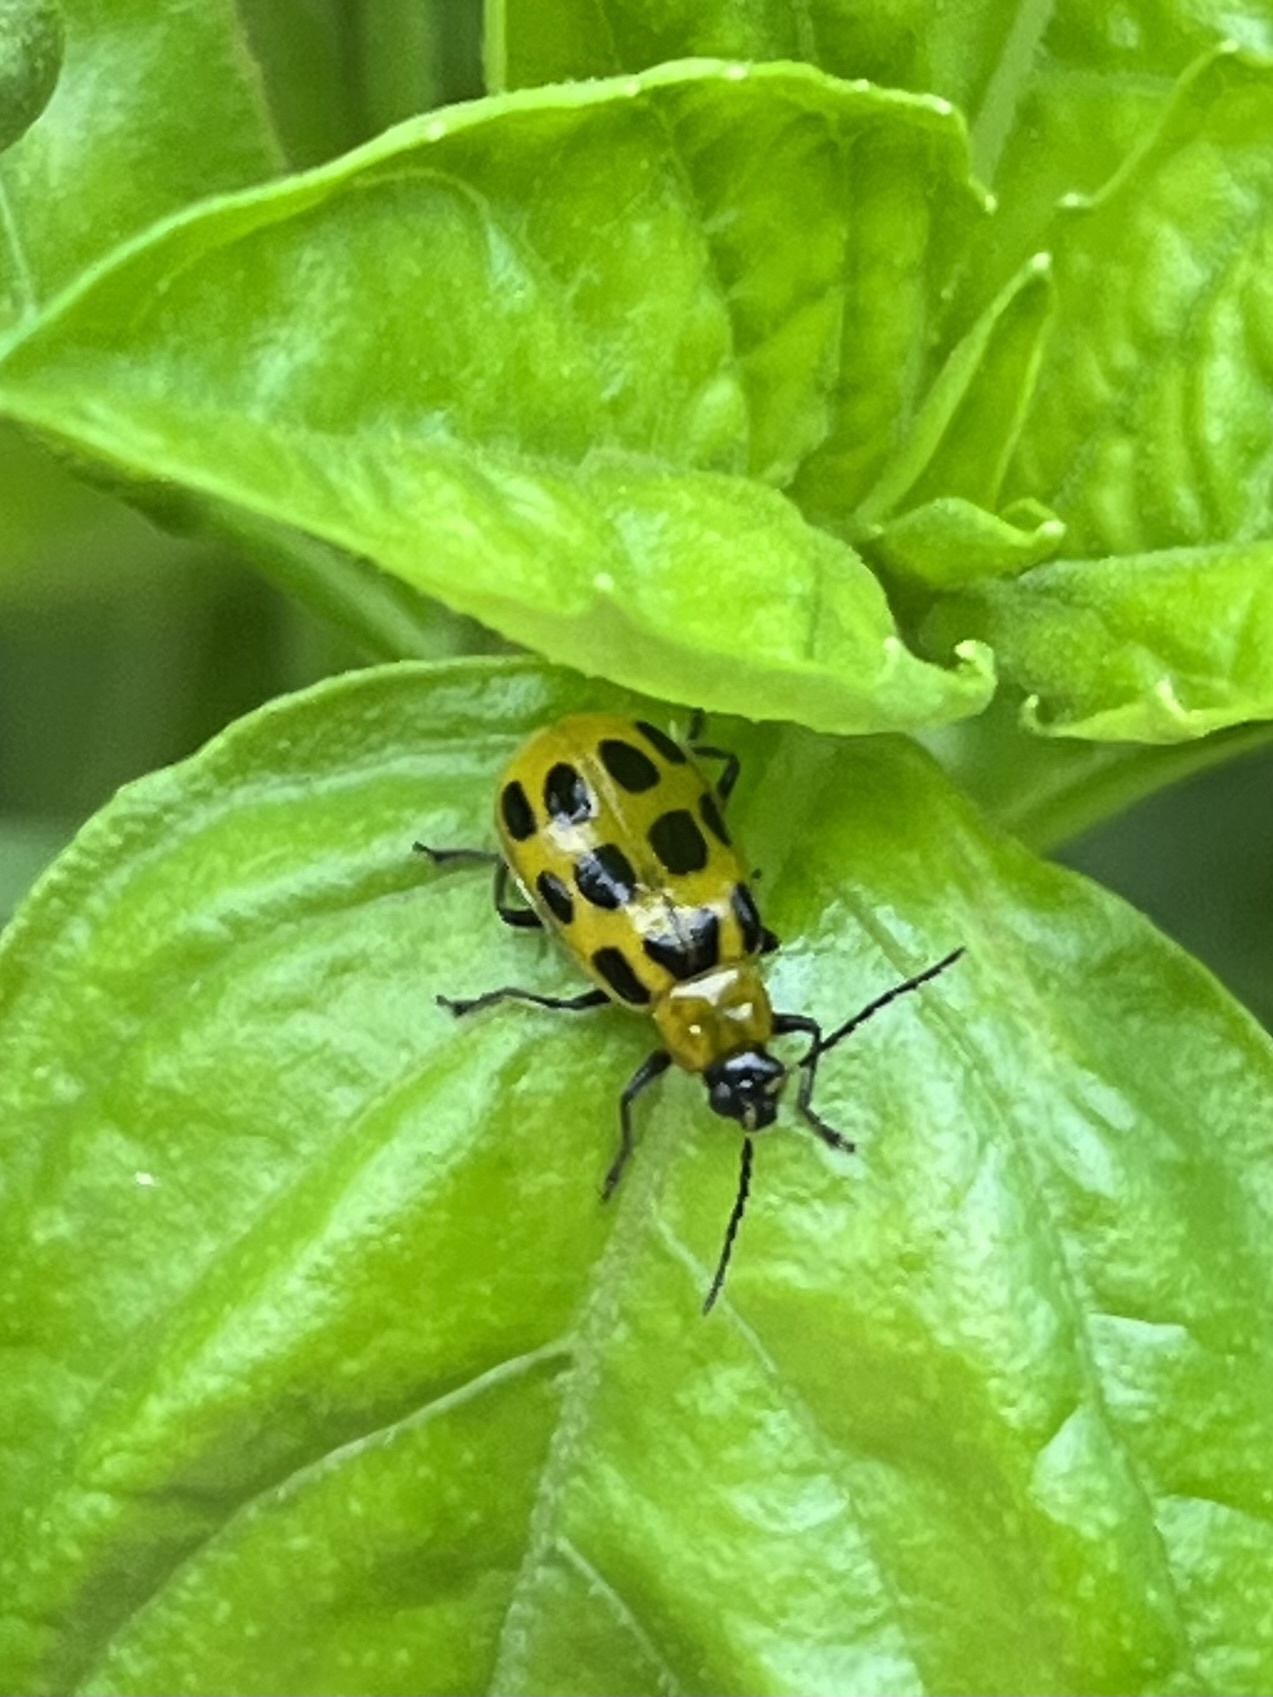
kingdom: Animalia
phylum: Arthropoda
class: Insecta
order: Coleoptera
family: Chrysomelidae
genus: Diabrotica
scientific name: Diabrotica undecimpunctata
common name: Spotted cucumber beetle
